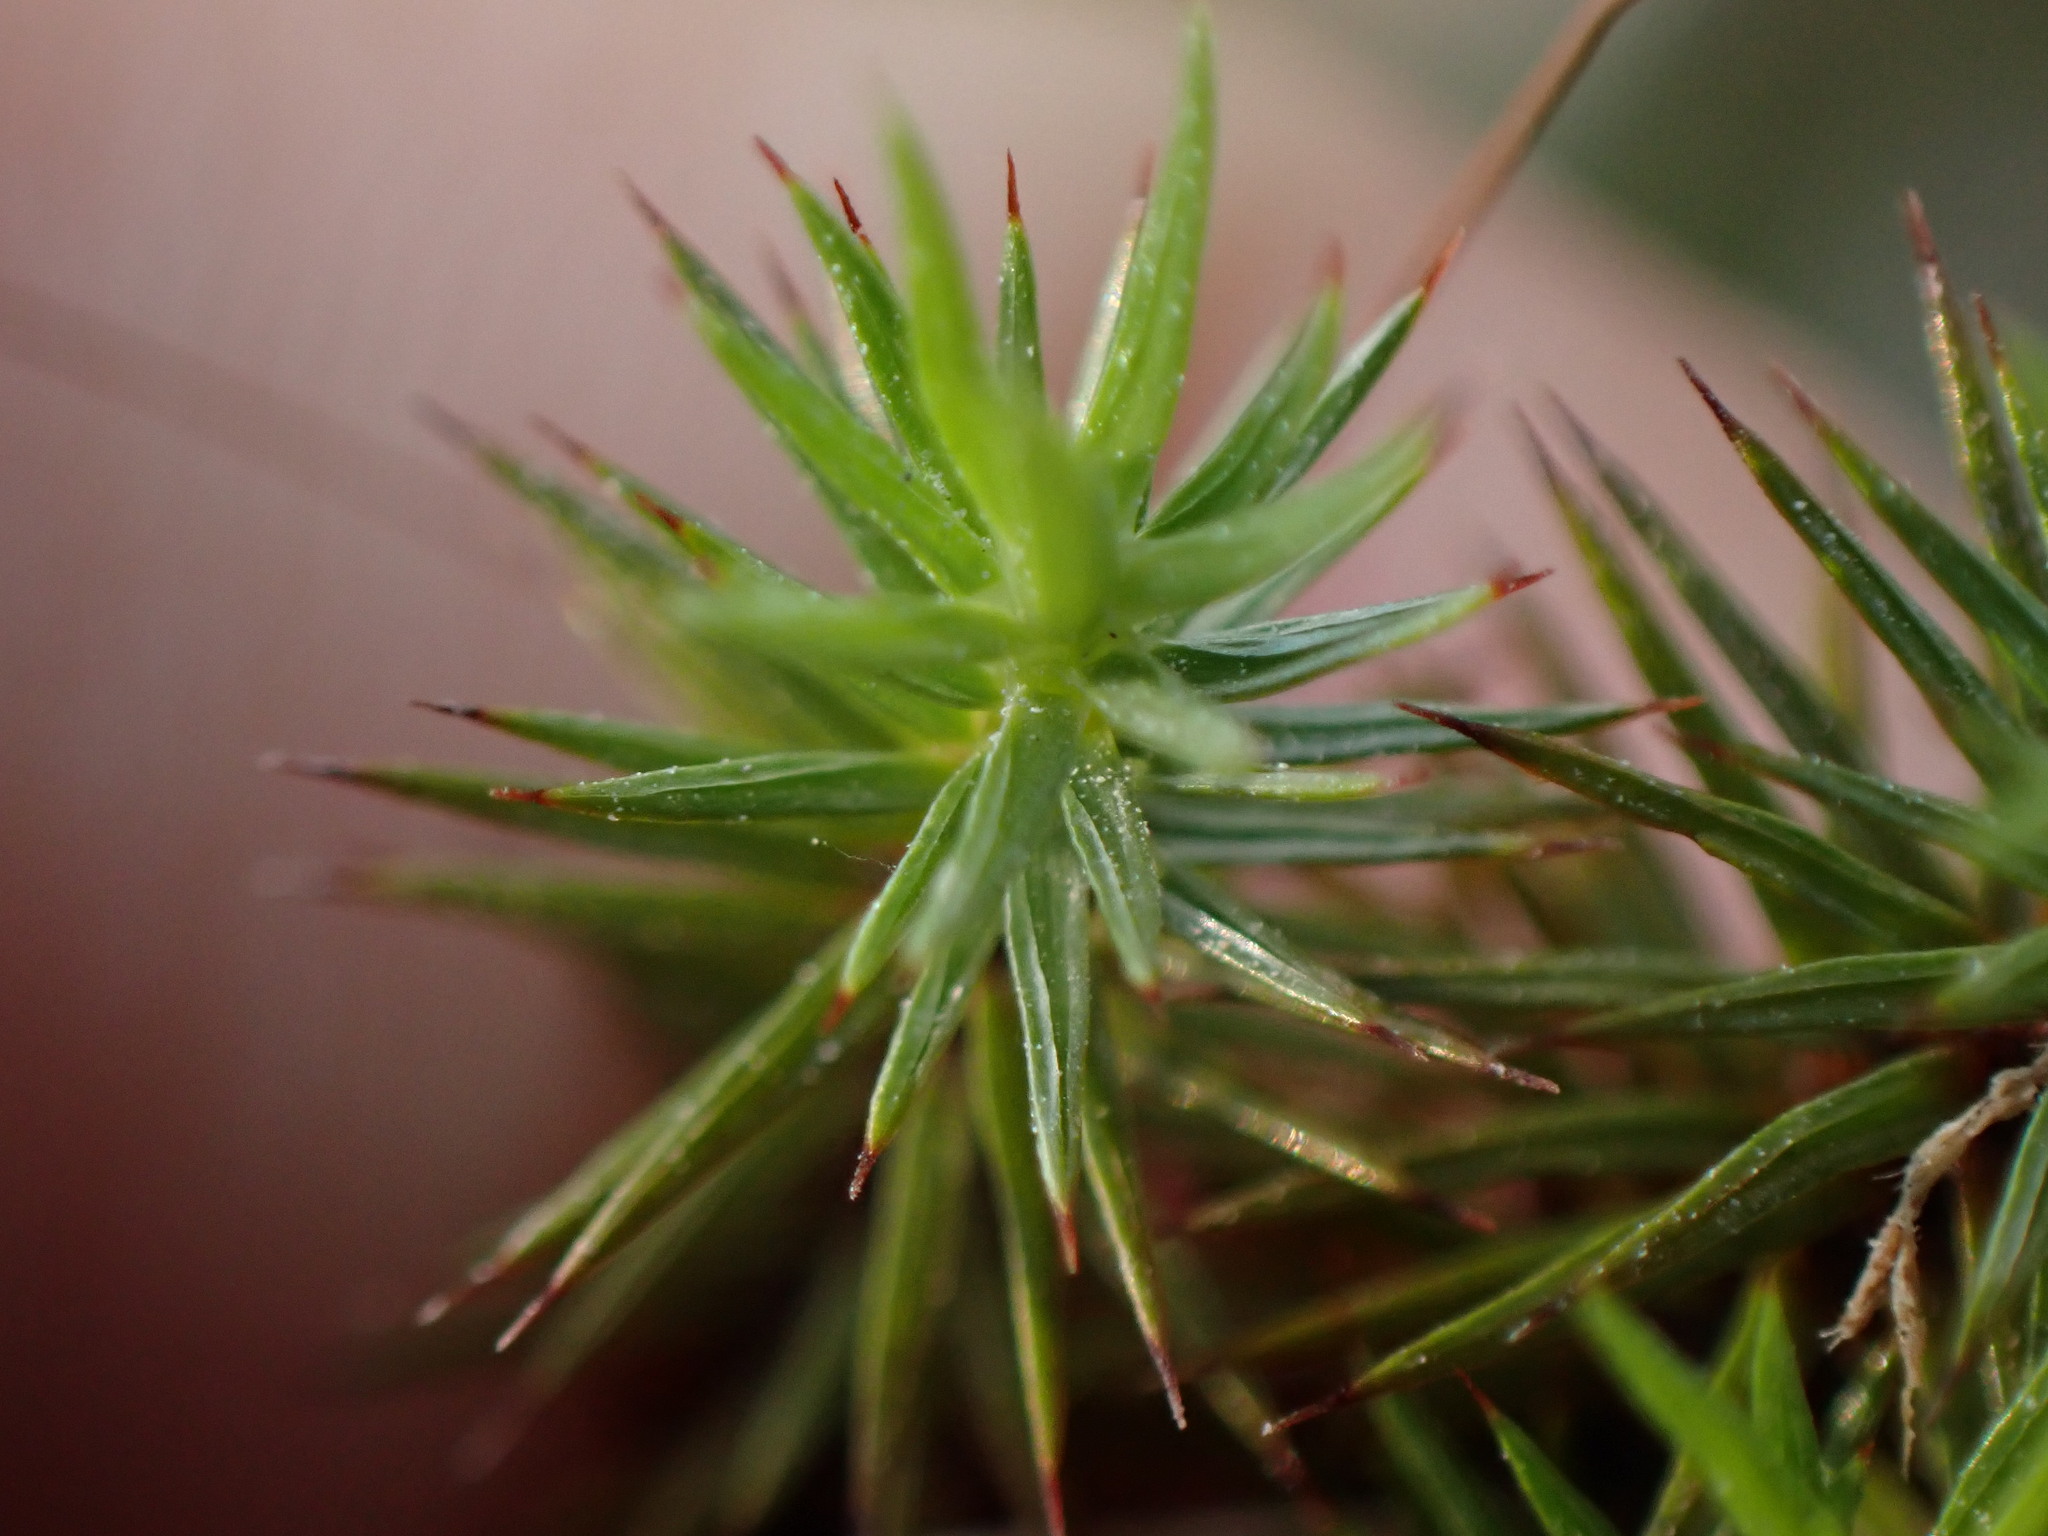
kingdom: Plantae
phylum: Bryophyta
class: Polytrichopsida
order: Polytrichales
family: Polytrichaceae
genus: Polytrichum
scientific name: Polytrichum juniperinum
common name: Juniper haircap moss
